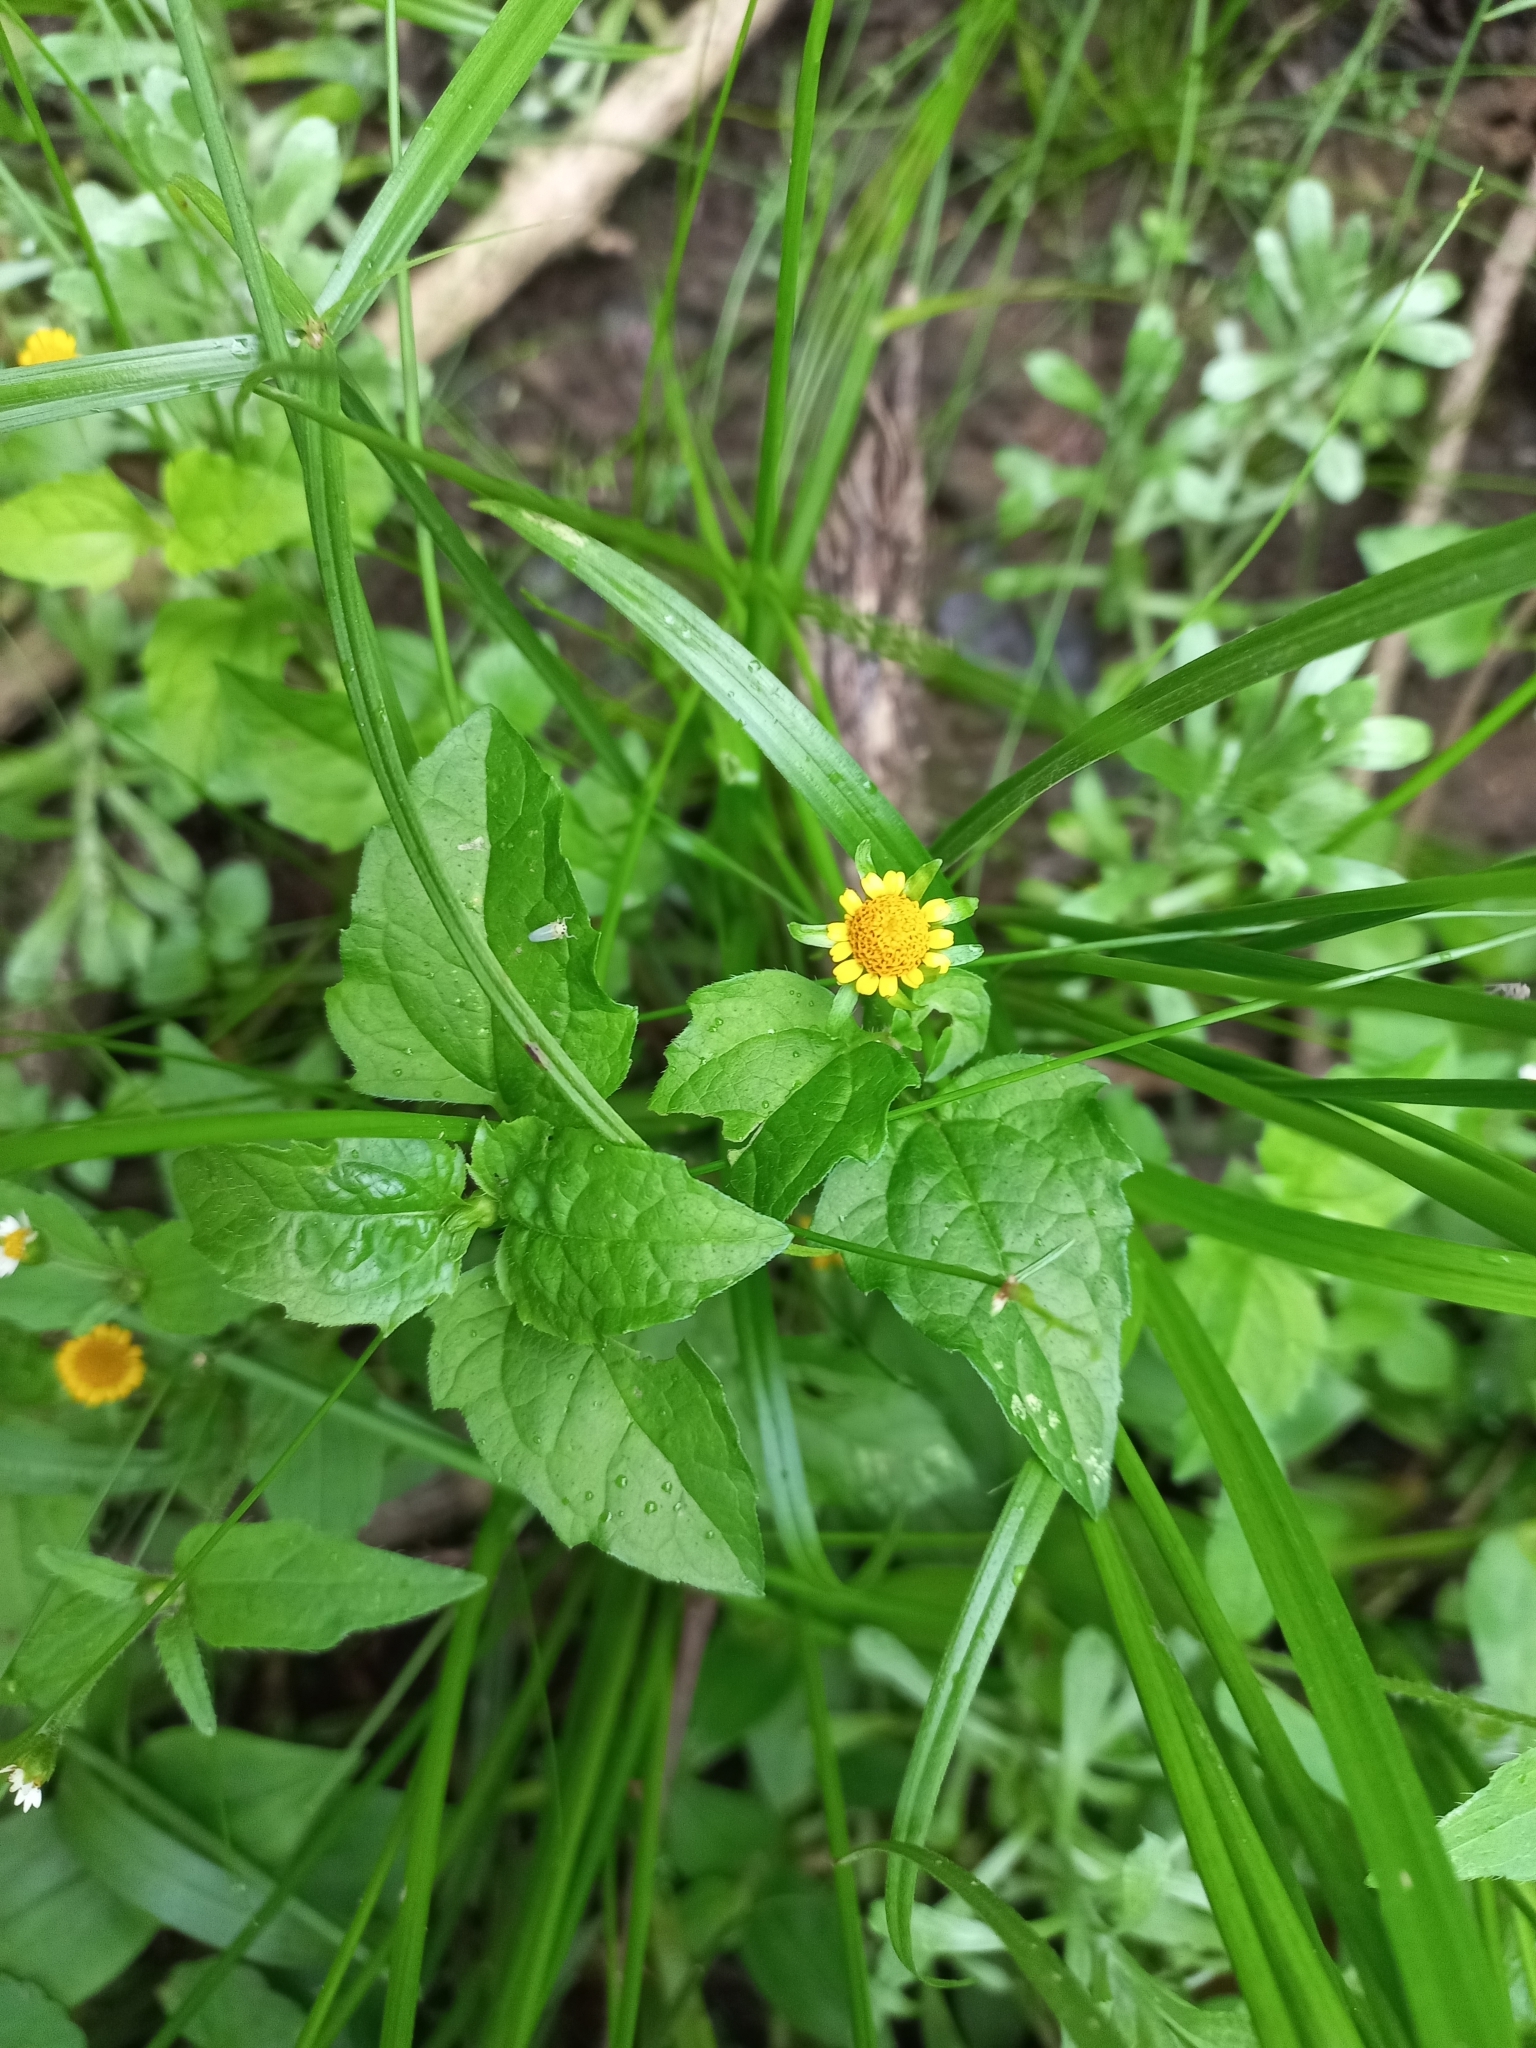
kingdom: Plantae
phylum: Tracheophyta
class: Magnoliopsida
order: Asterales
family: Asteraceae
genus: Sphagneticola
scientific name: Sphagneticola trilobata
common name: Bay biscayne creeping-oxeye
